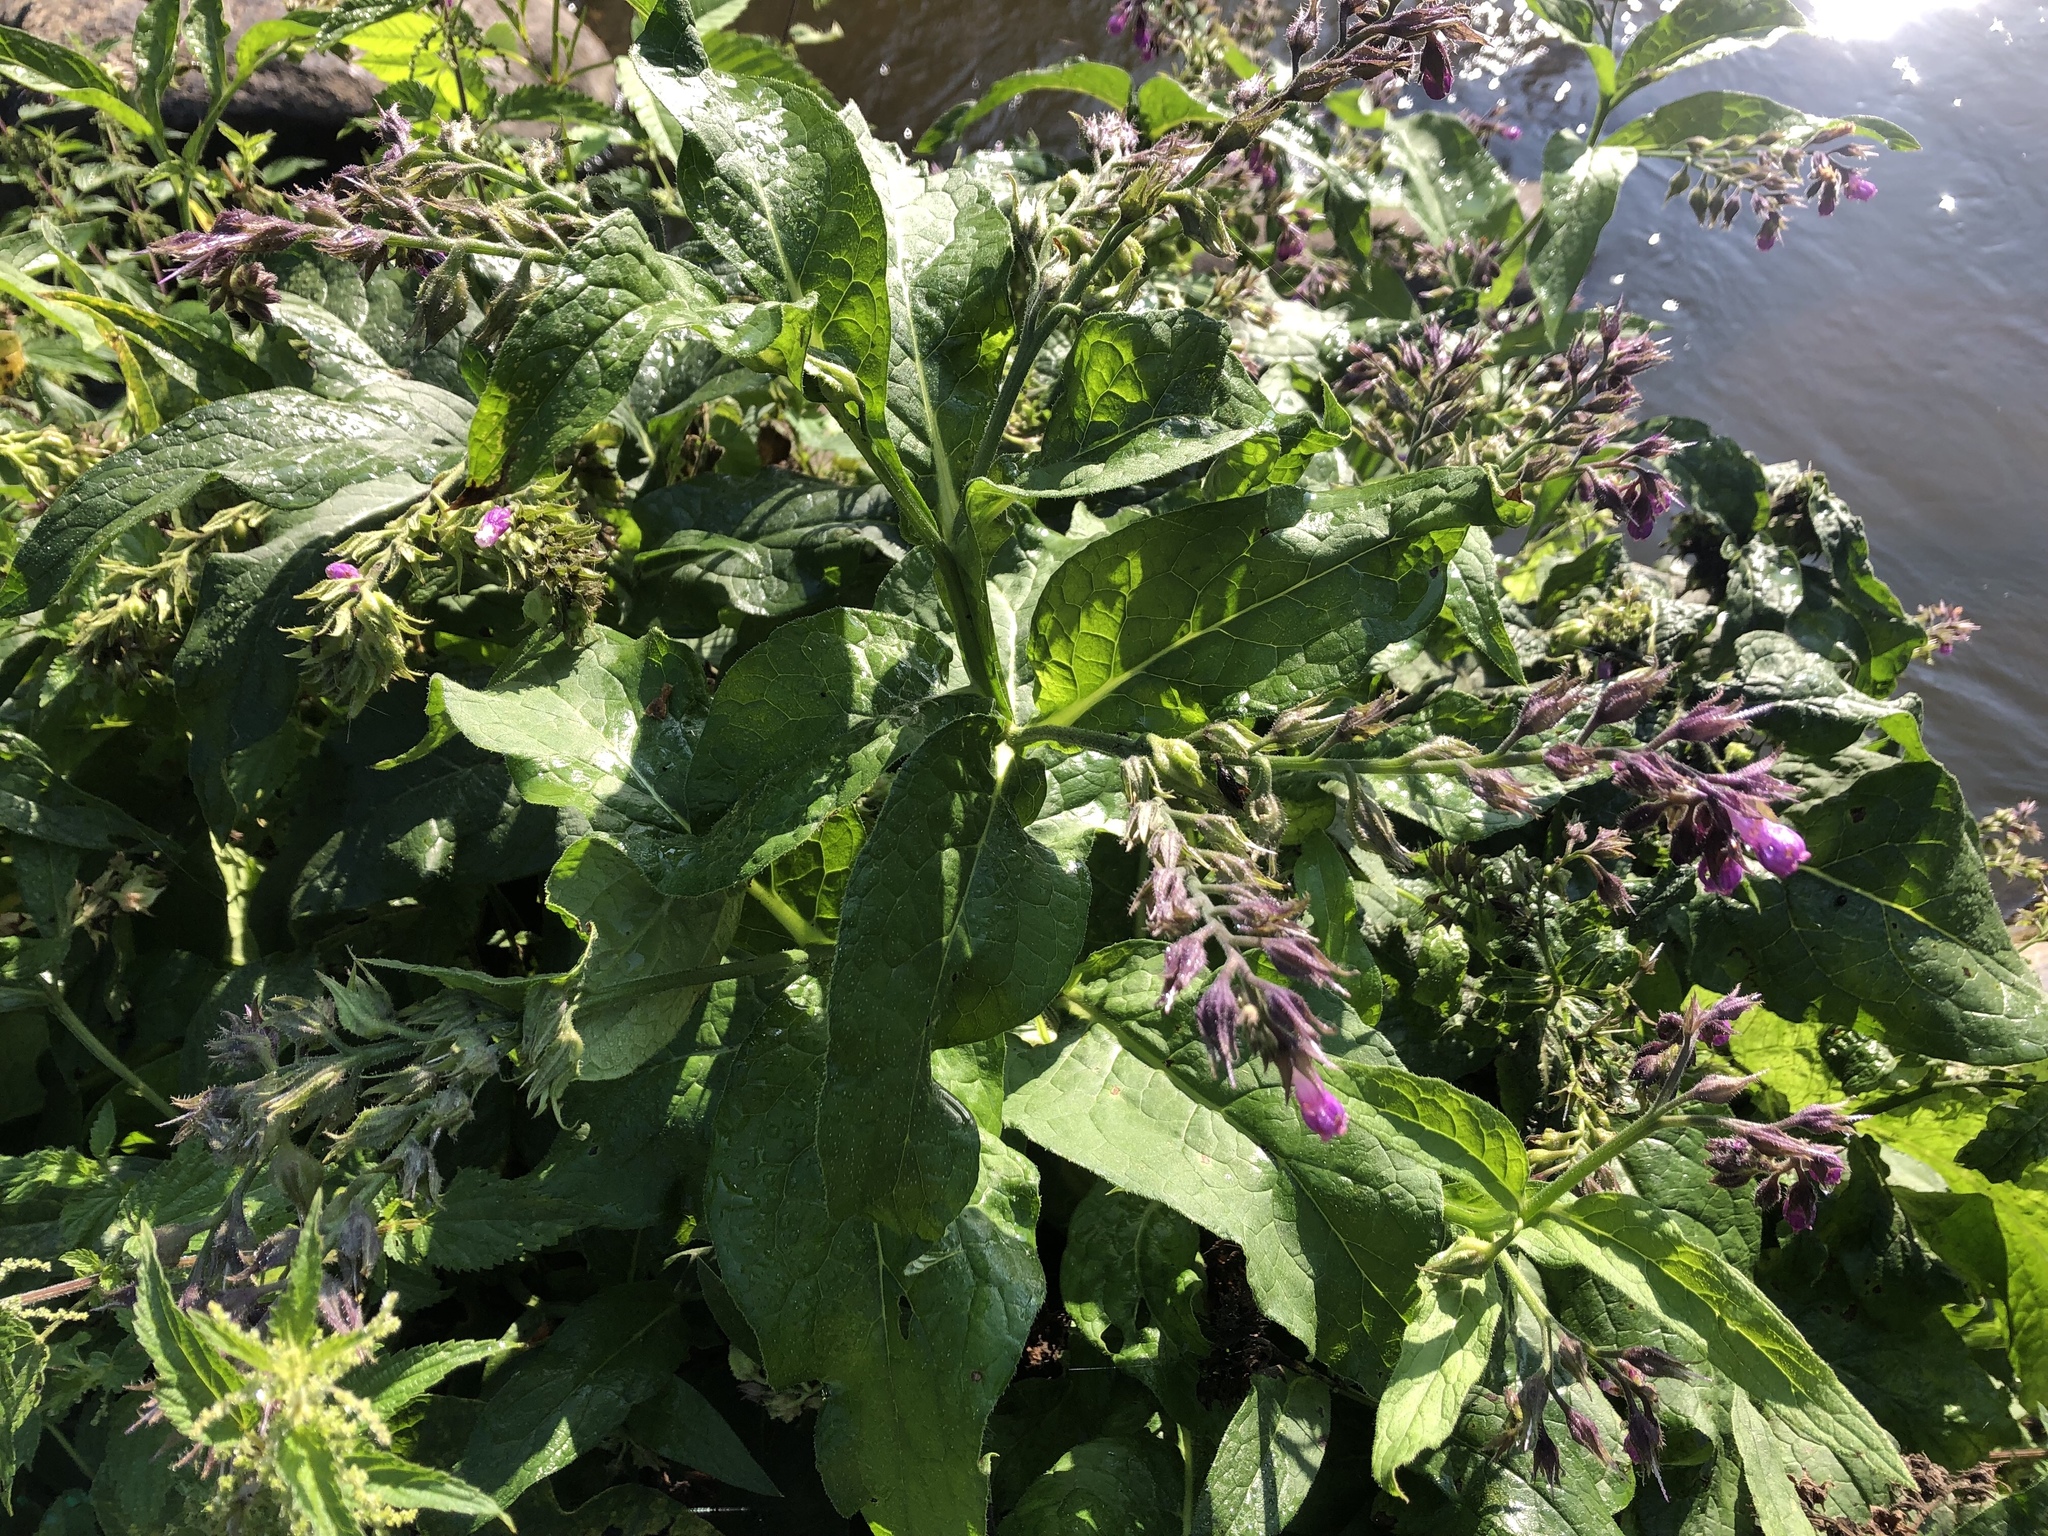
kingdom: Plantae
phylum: Tracheophyta
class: Magnoliopsida
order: Boraginales
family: Boraginaceae
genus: Symphytum
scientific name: Symphytum officinale
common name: Common comfrey
